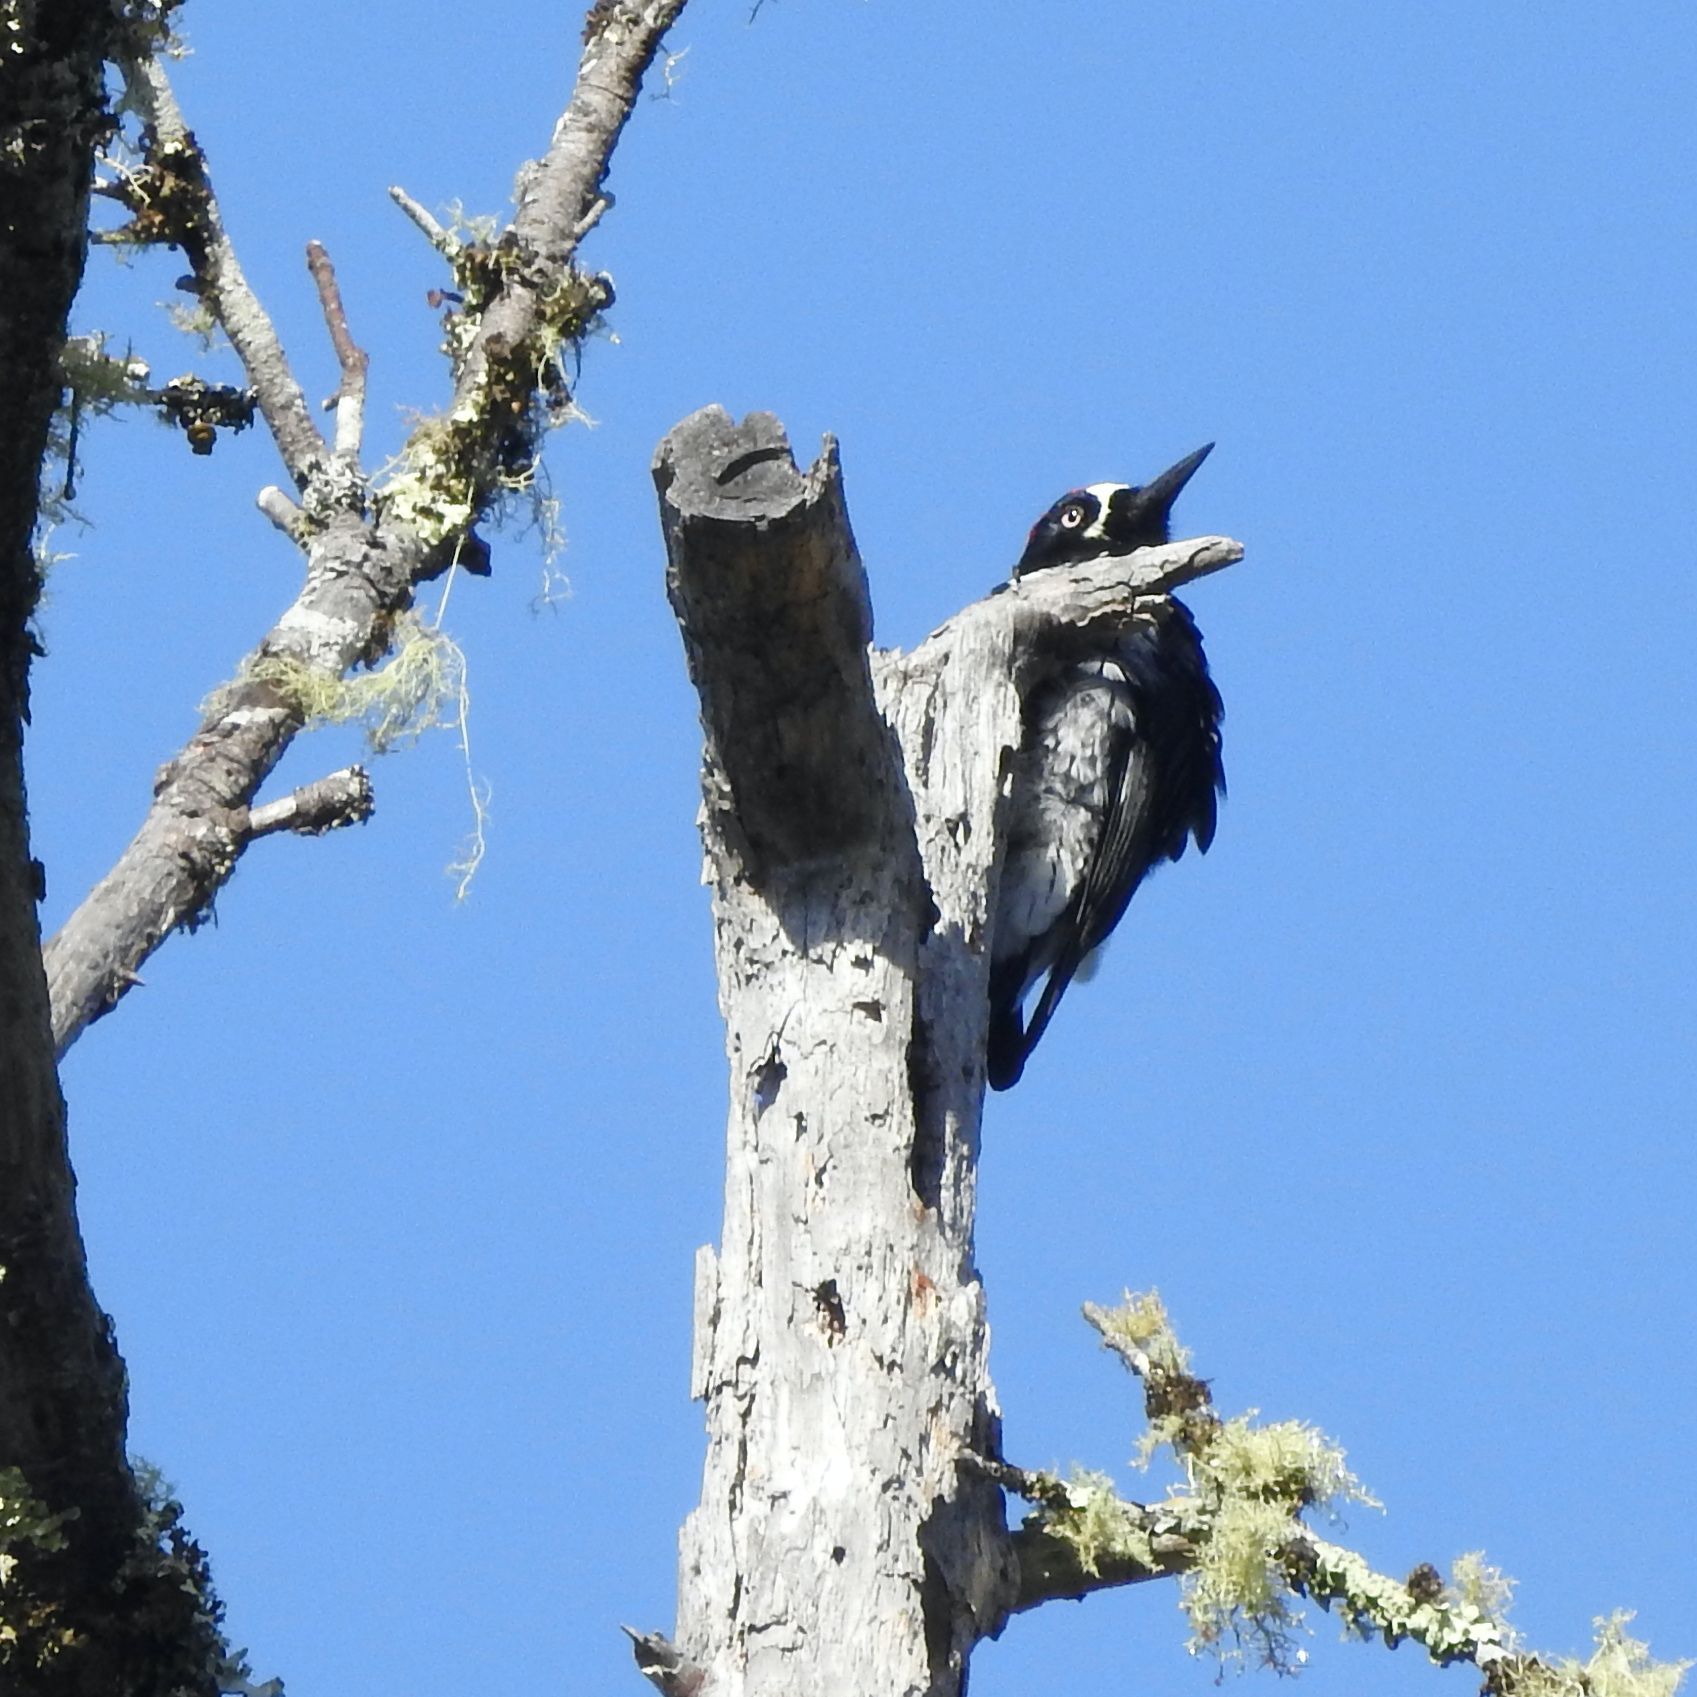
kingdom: Animalia
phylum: Chordata
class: Aves
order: Piciformes
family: Picidae
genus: Melanerpes
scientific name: Melanerpes formicivorus
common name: Acorn woodpecker
